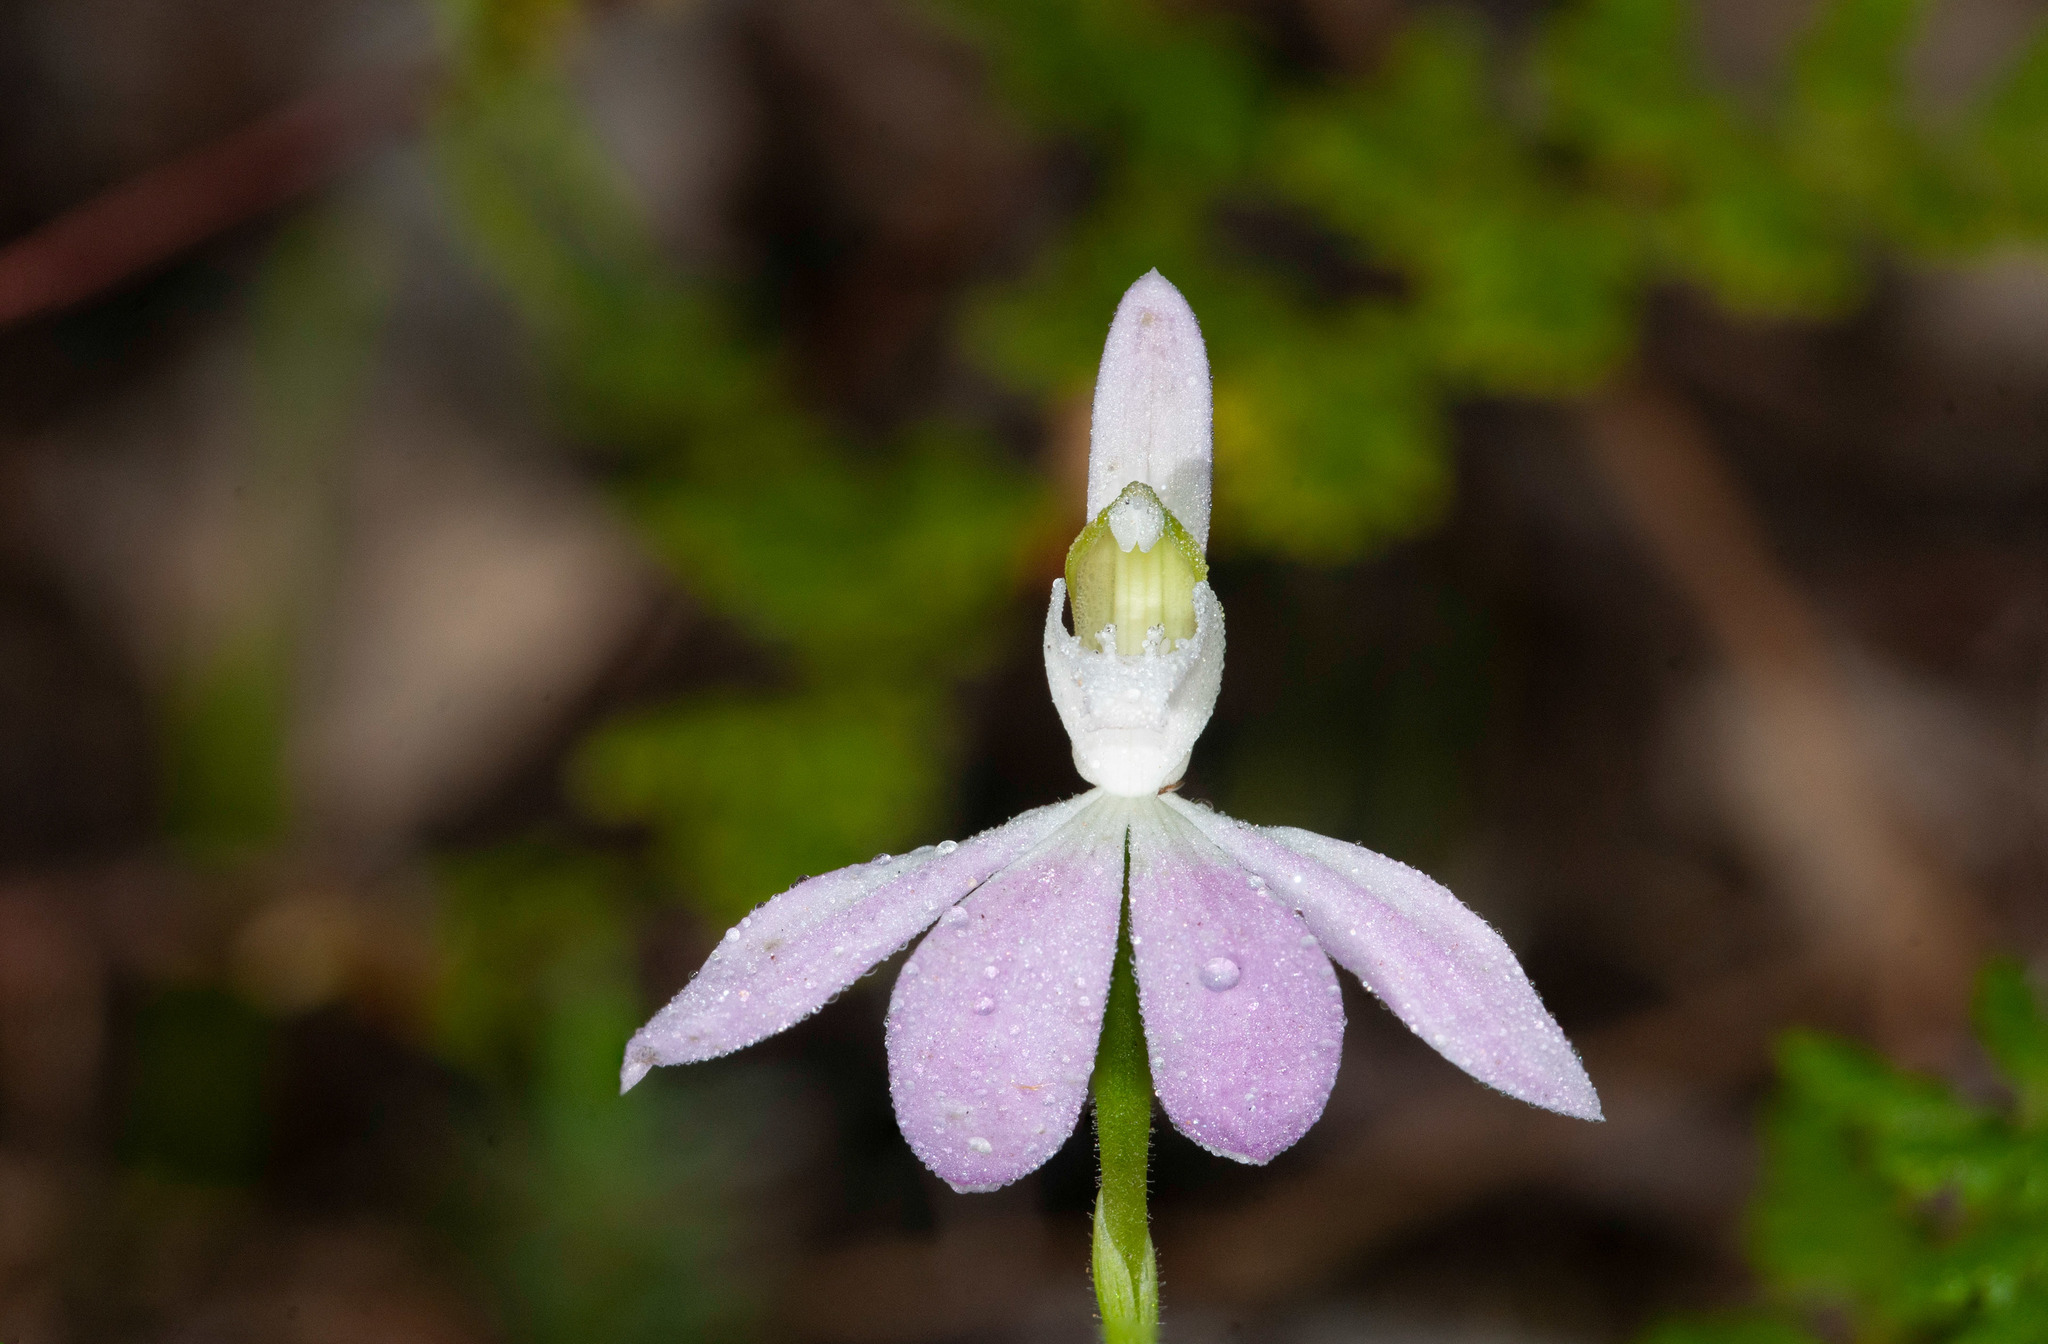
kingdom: Plantae
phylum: Tracheophyta
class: Liliopsida
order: Asparagales
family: Orchidaceae
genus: Caladenia
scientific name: Caladenia catenata
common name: White caladenia
